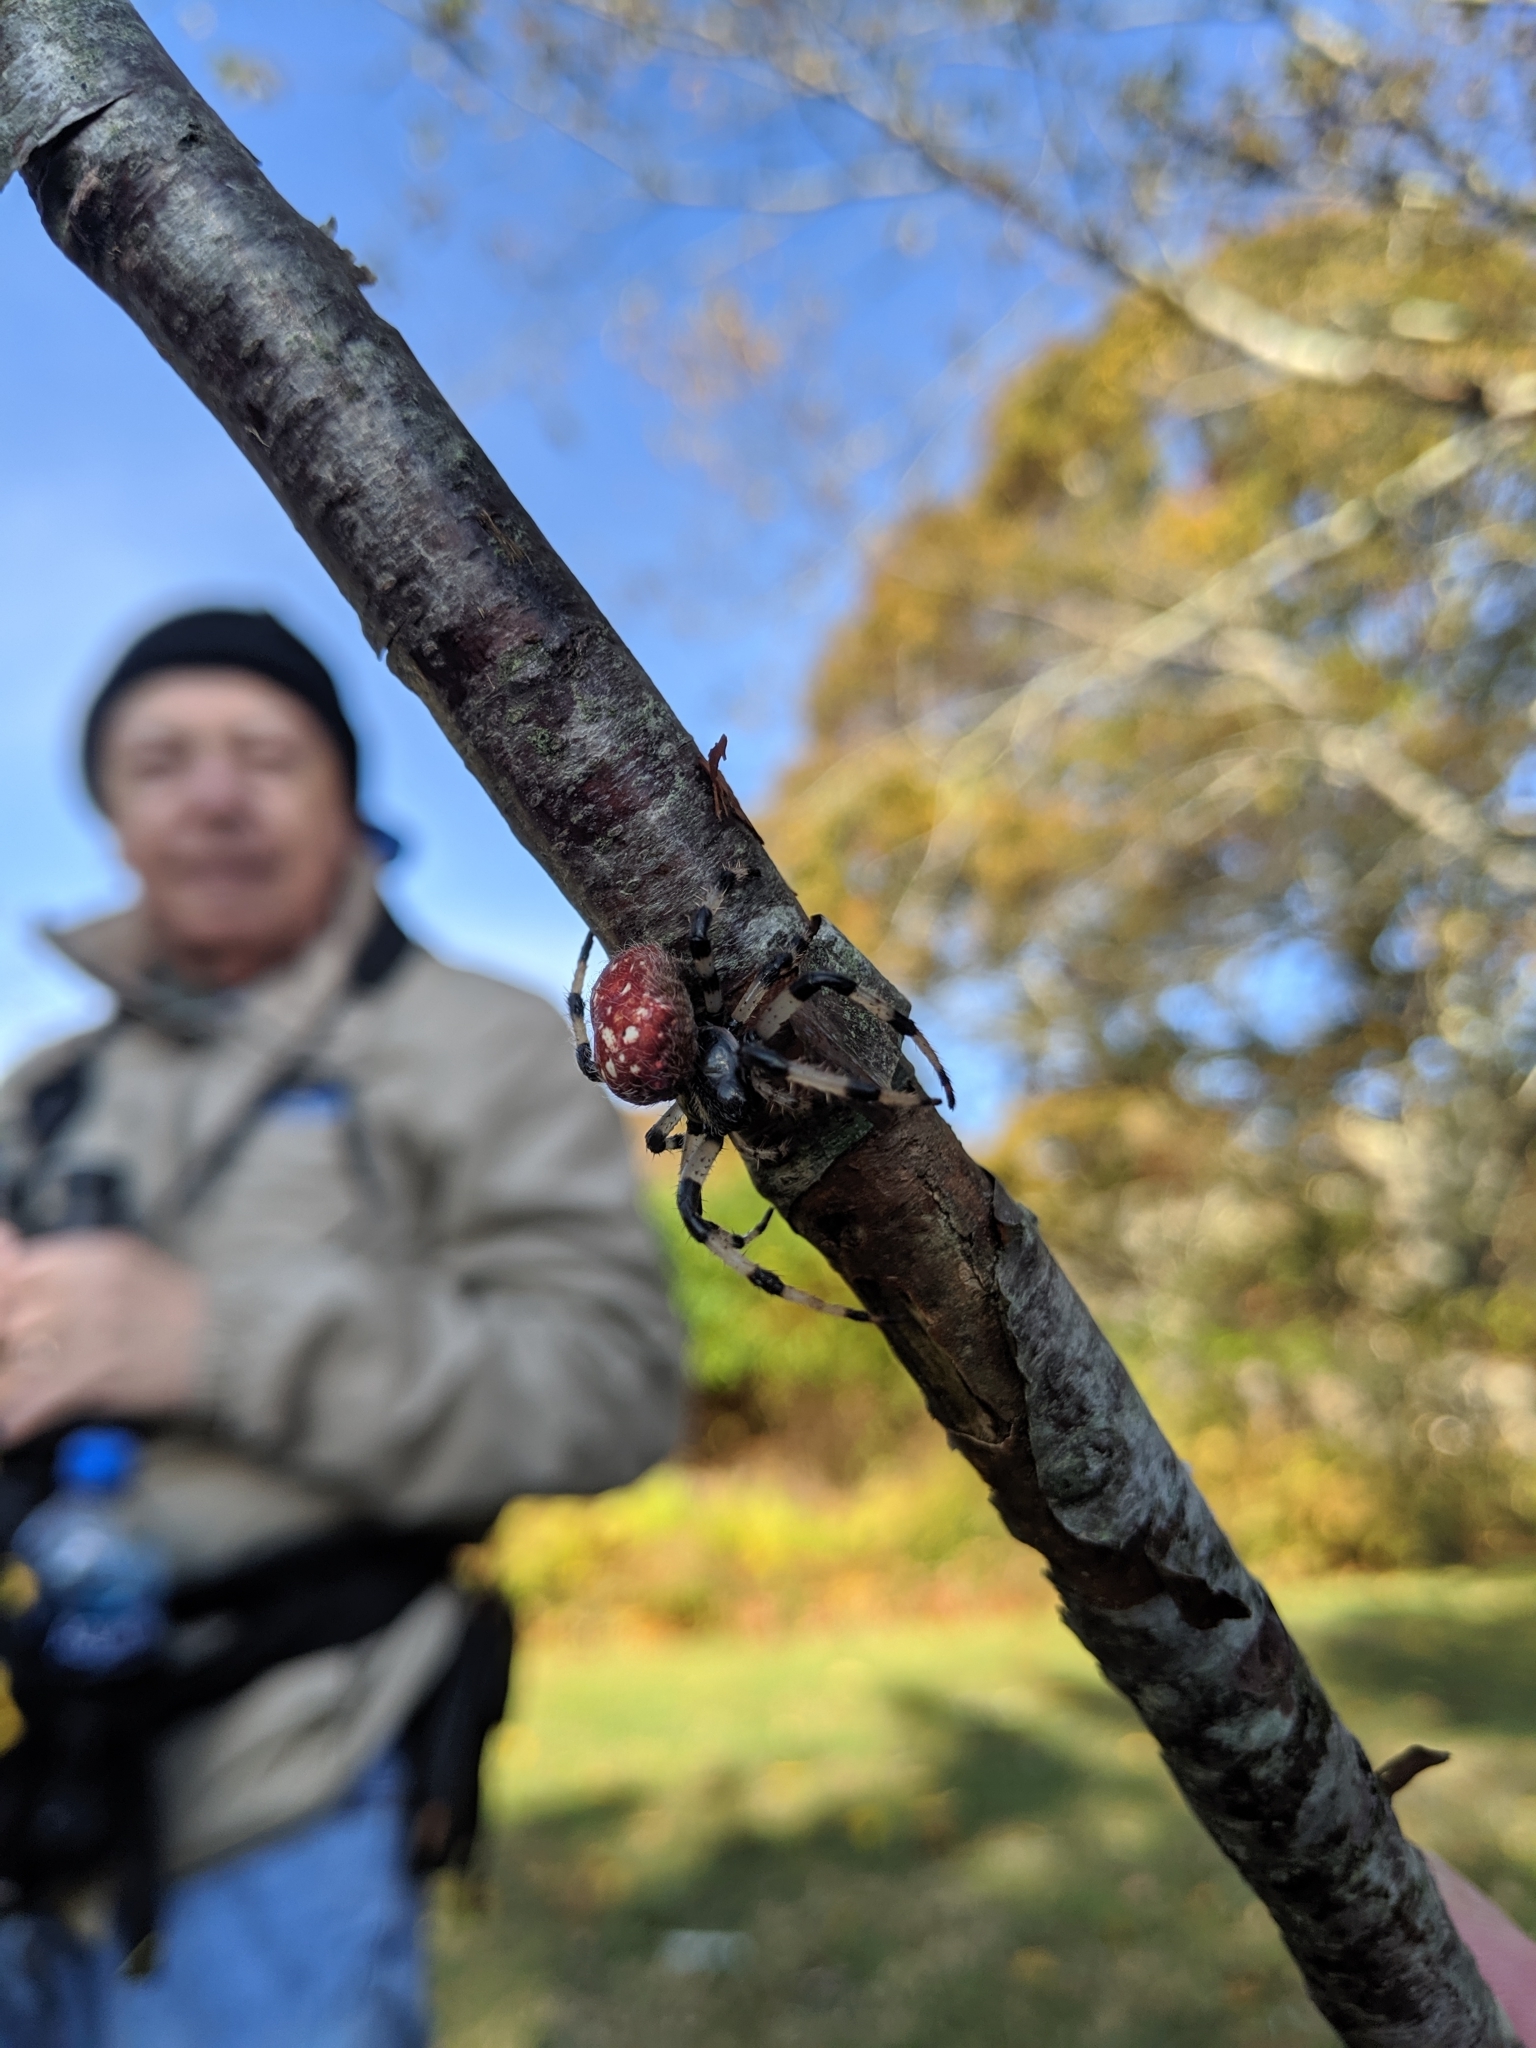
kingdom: Animalia
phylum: Arthropoda
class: Arachnida
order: Araneae
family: Araneidae
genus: Araneus
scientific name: Araneus trifolium
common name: Shamrock orbweaver
